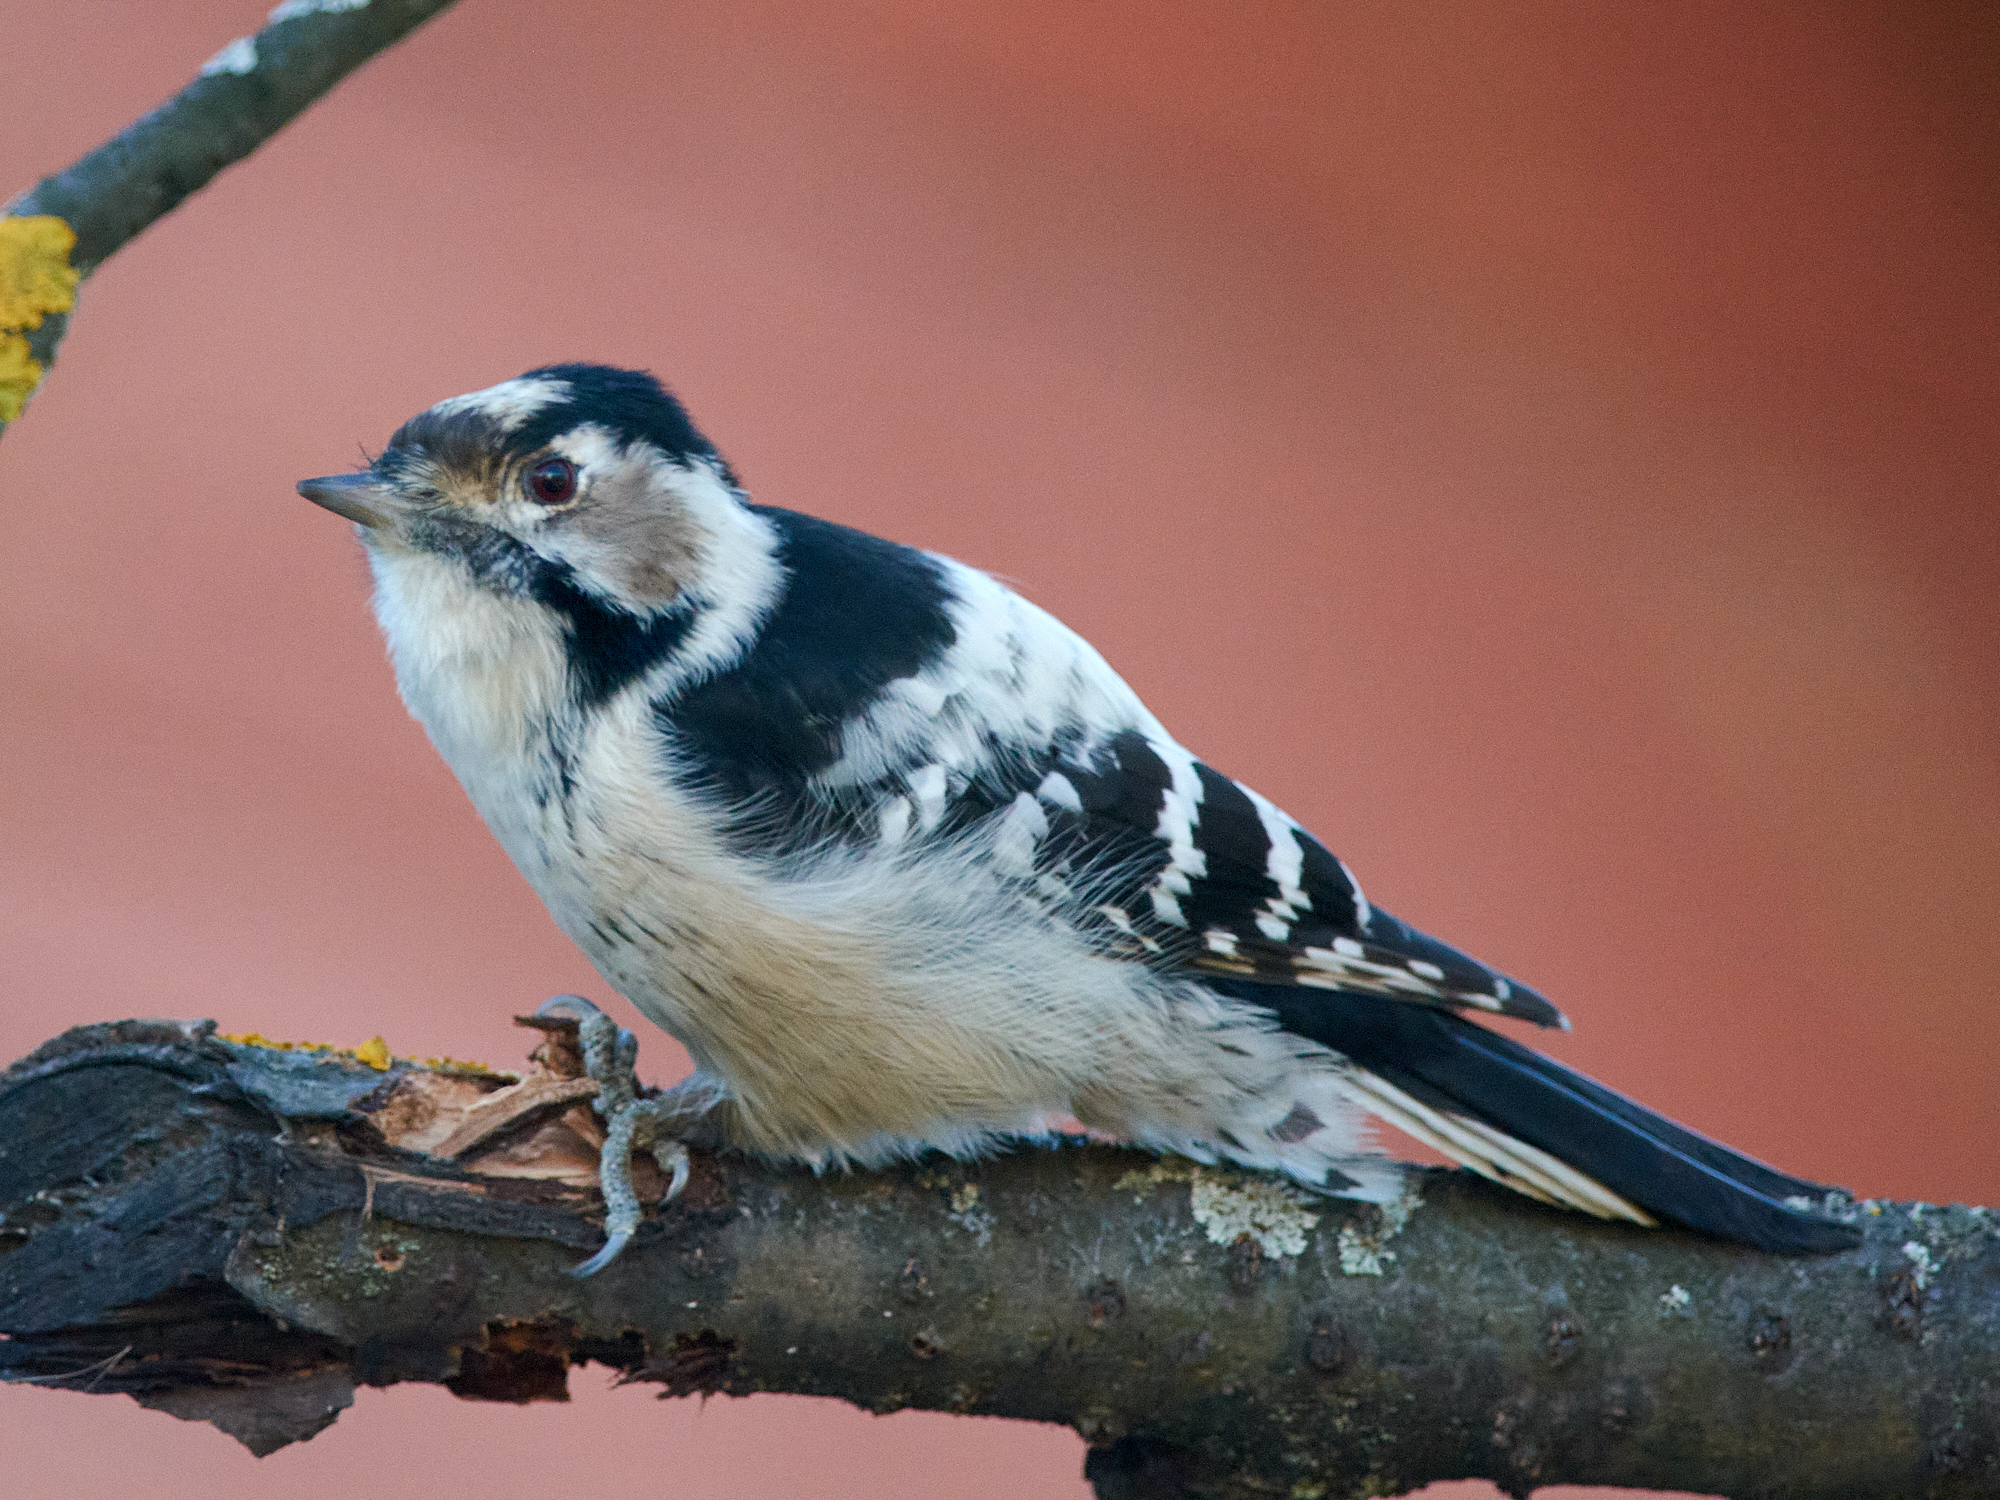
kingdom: Animalia
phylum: Chordata
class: Aves
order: Piciformes
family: Picidae
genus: Dryobates
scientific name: Dryobates minor
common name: Lesser spotted woodpecker
